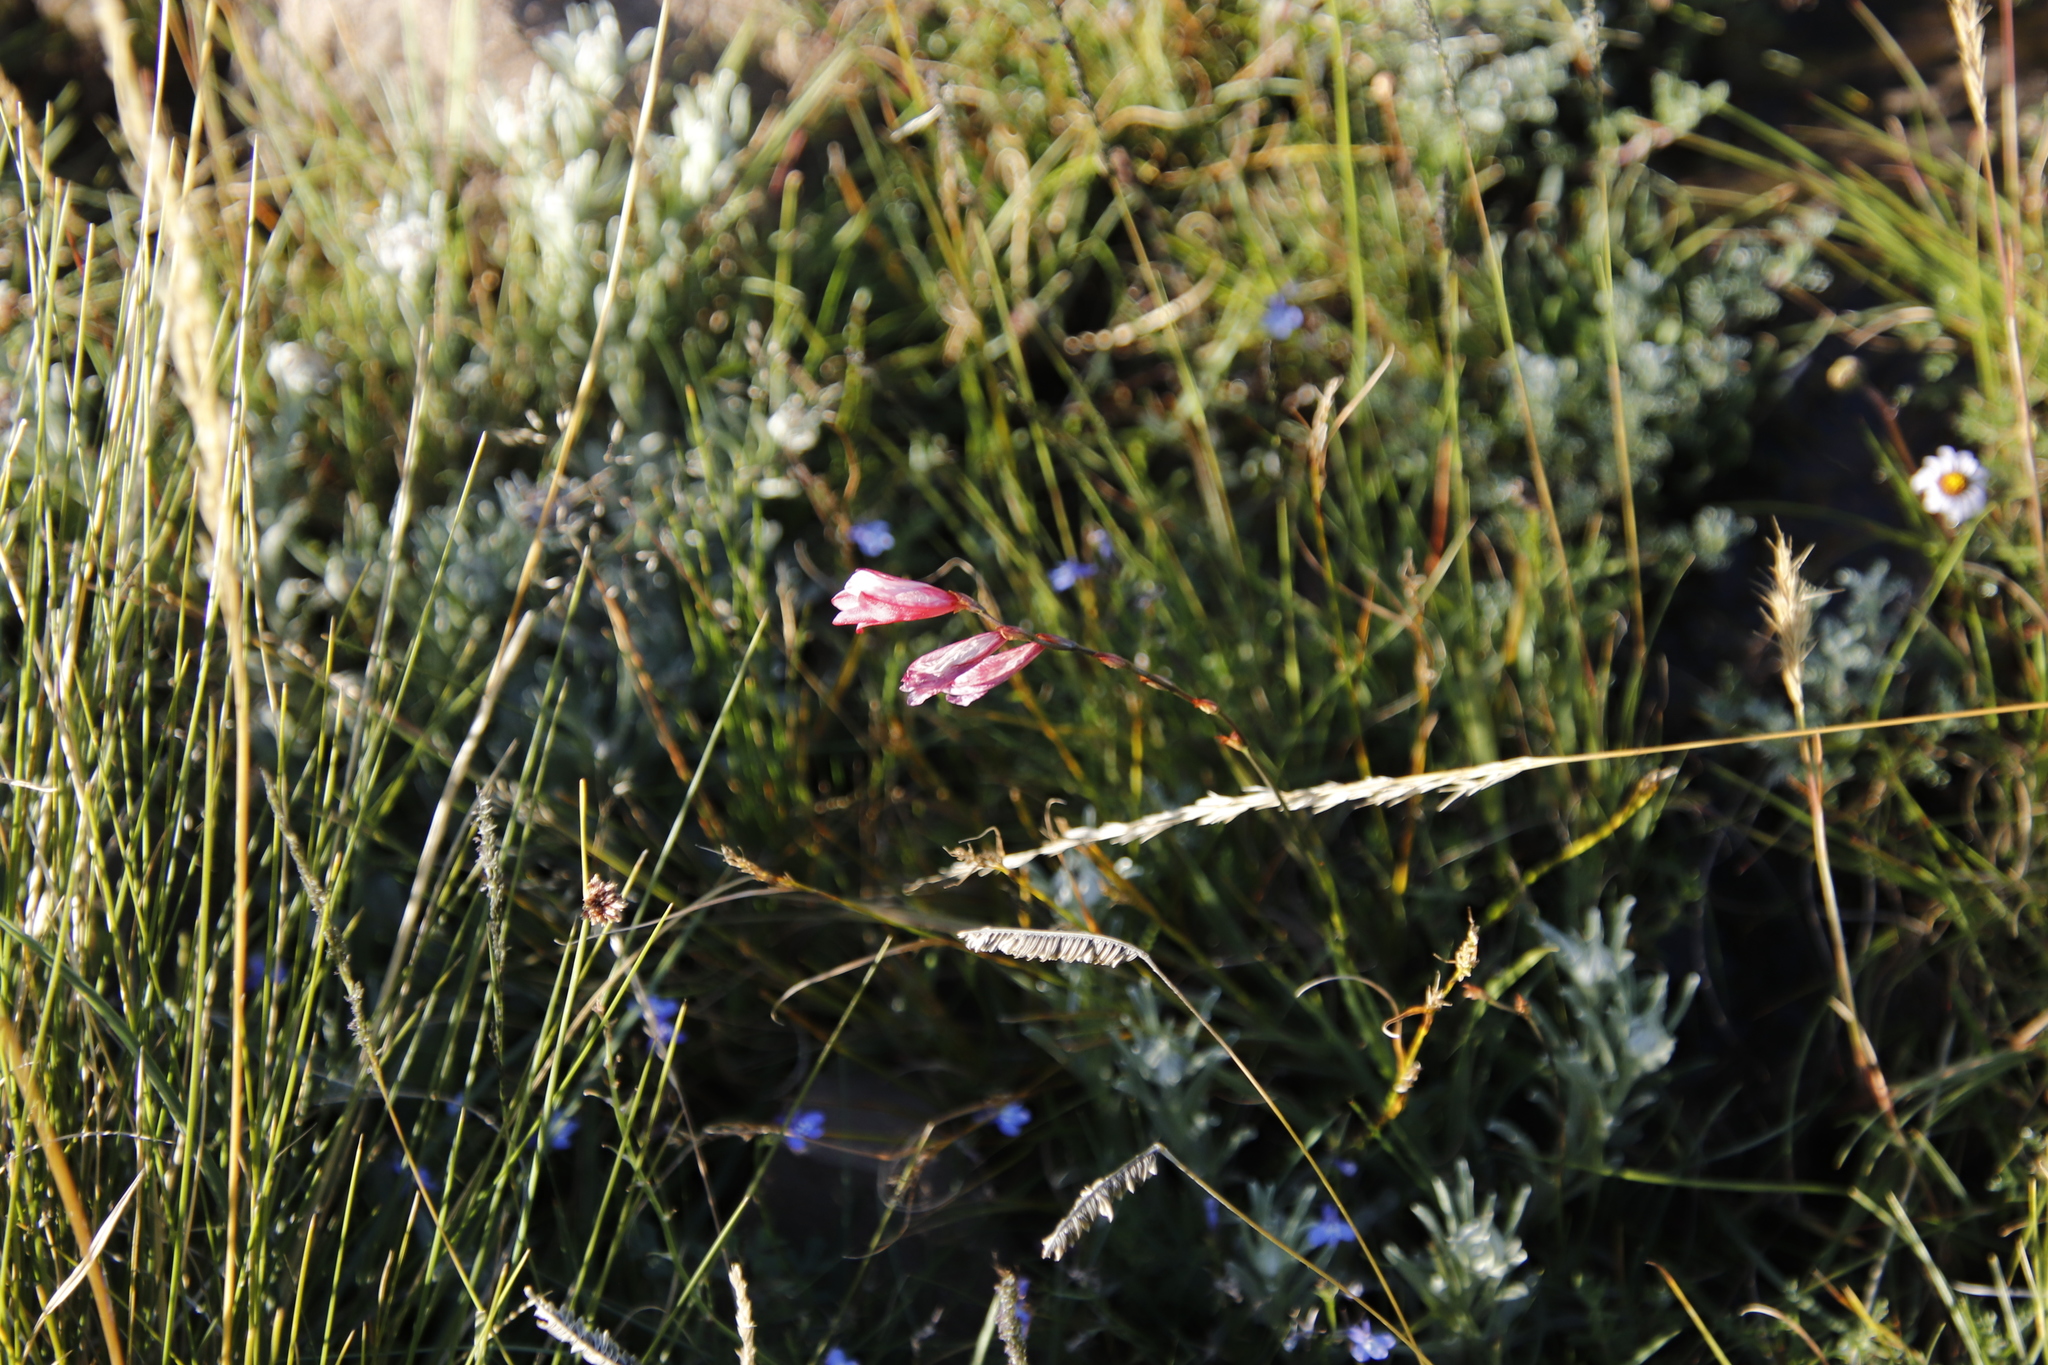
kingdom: Plantae
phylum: Tracheophyta
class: Liliopsida
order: Asparagales
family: Iridaceae
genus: Tritonia
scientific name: Tritonia drakensbergensis
